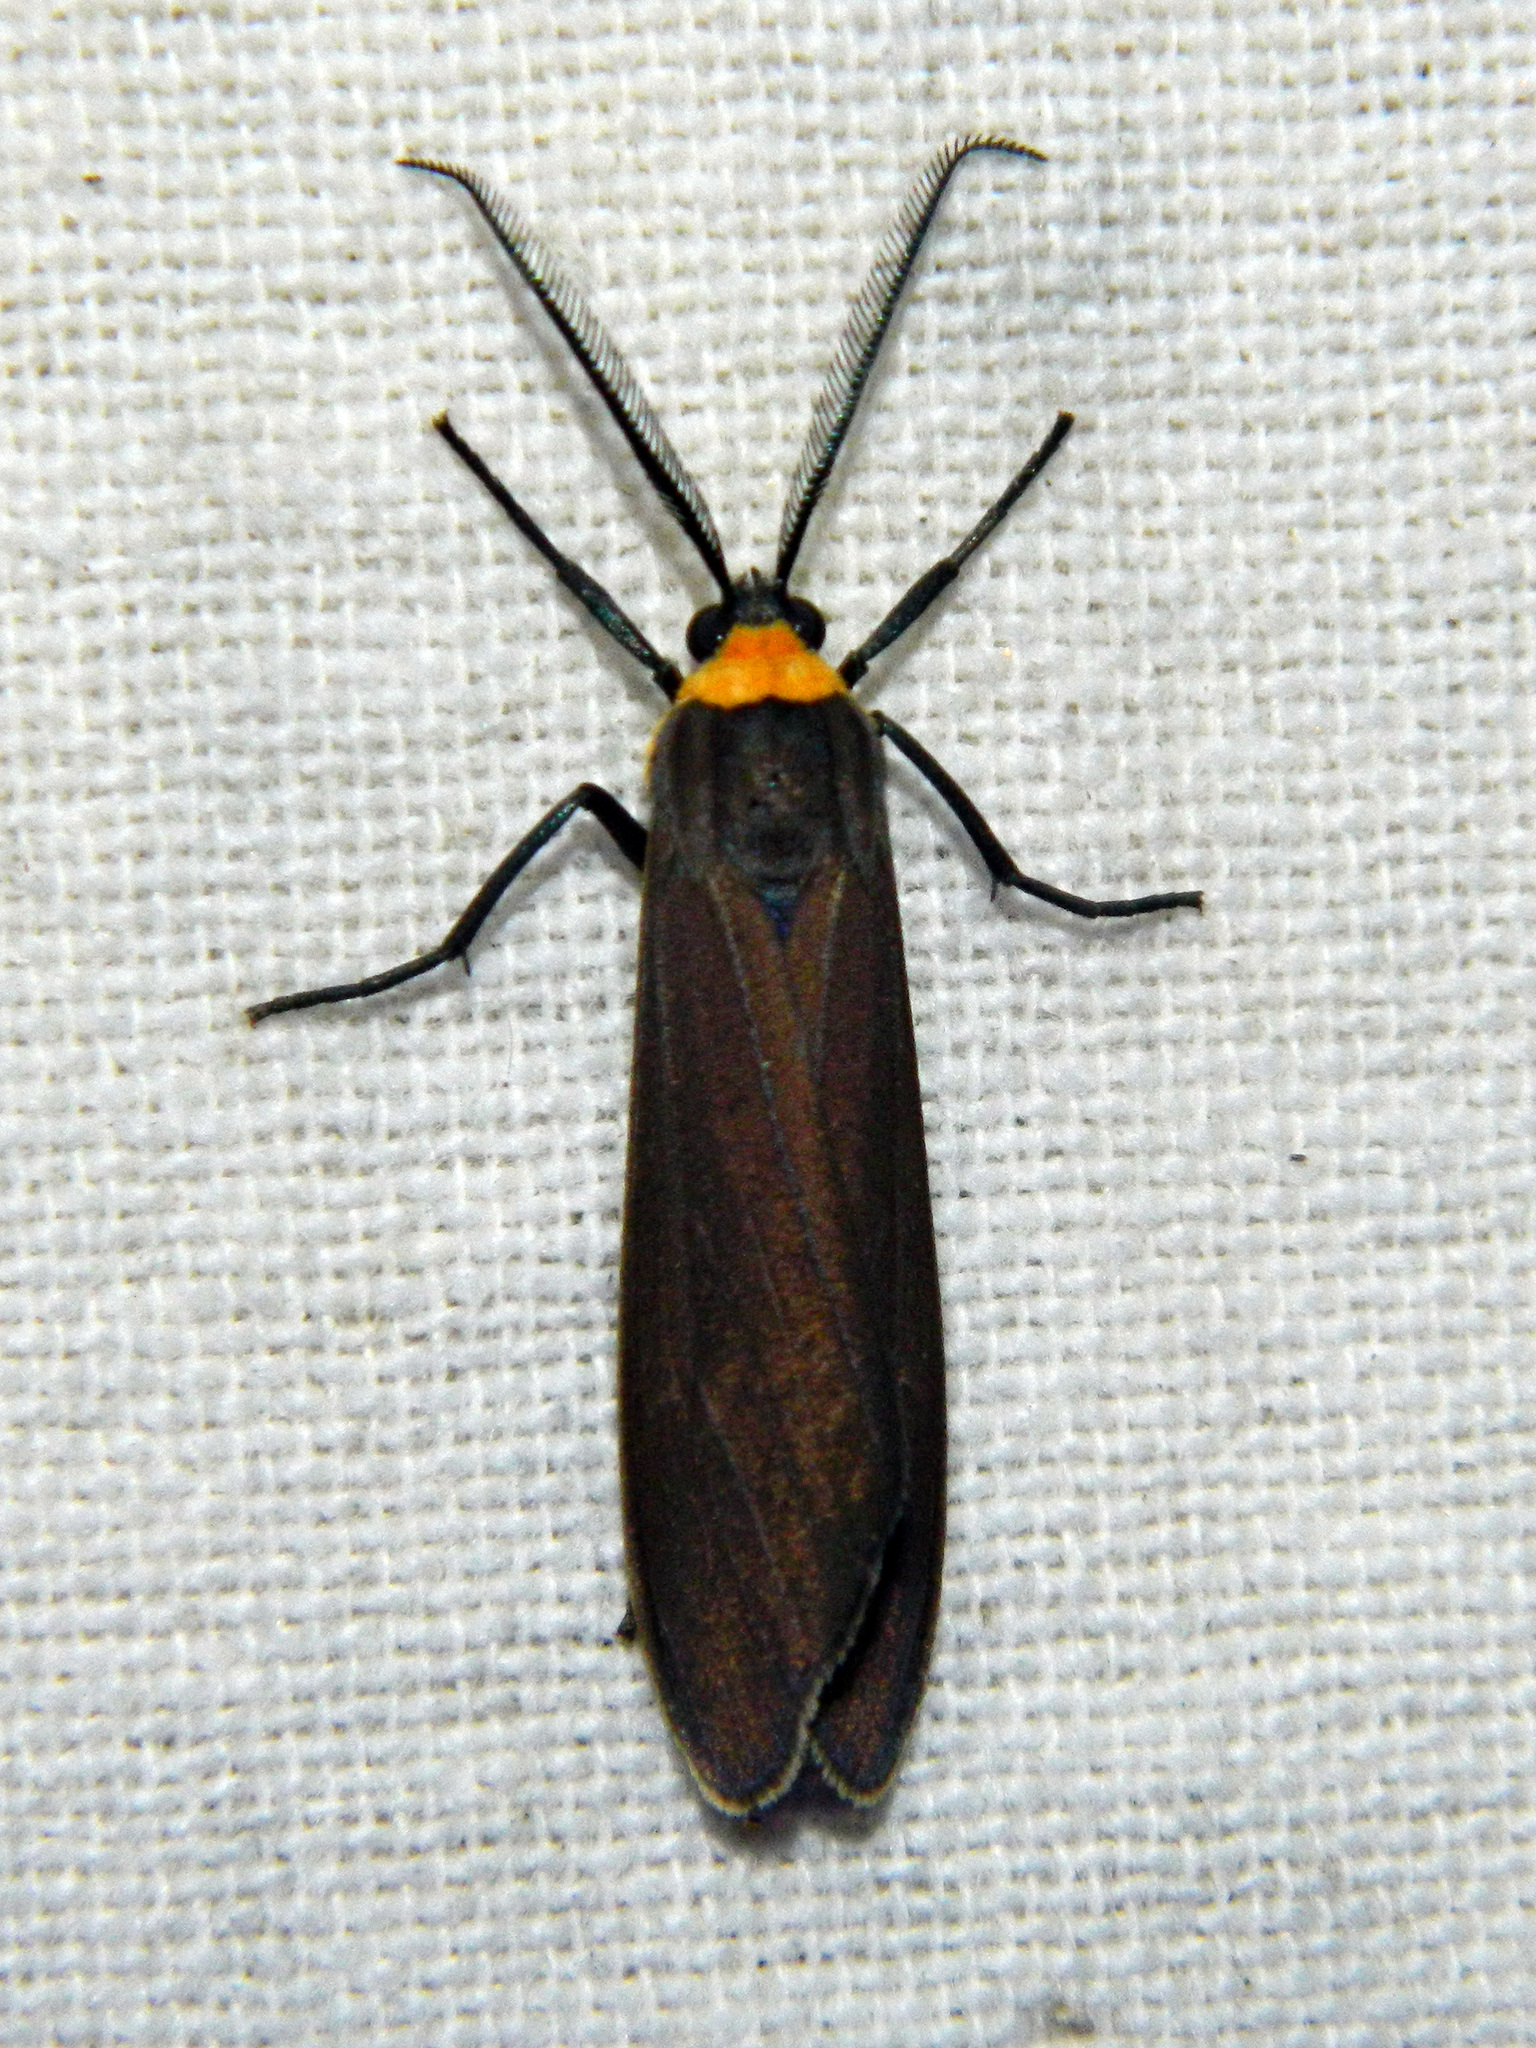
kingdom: Animalia
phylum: Arthropoda
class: Insecta
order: Lepidoptera
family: Erebidae
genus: Cisseps
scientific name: Cisseps fulvicollis
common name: Yellow-collared scape moth
